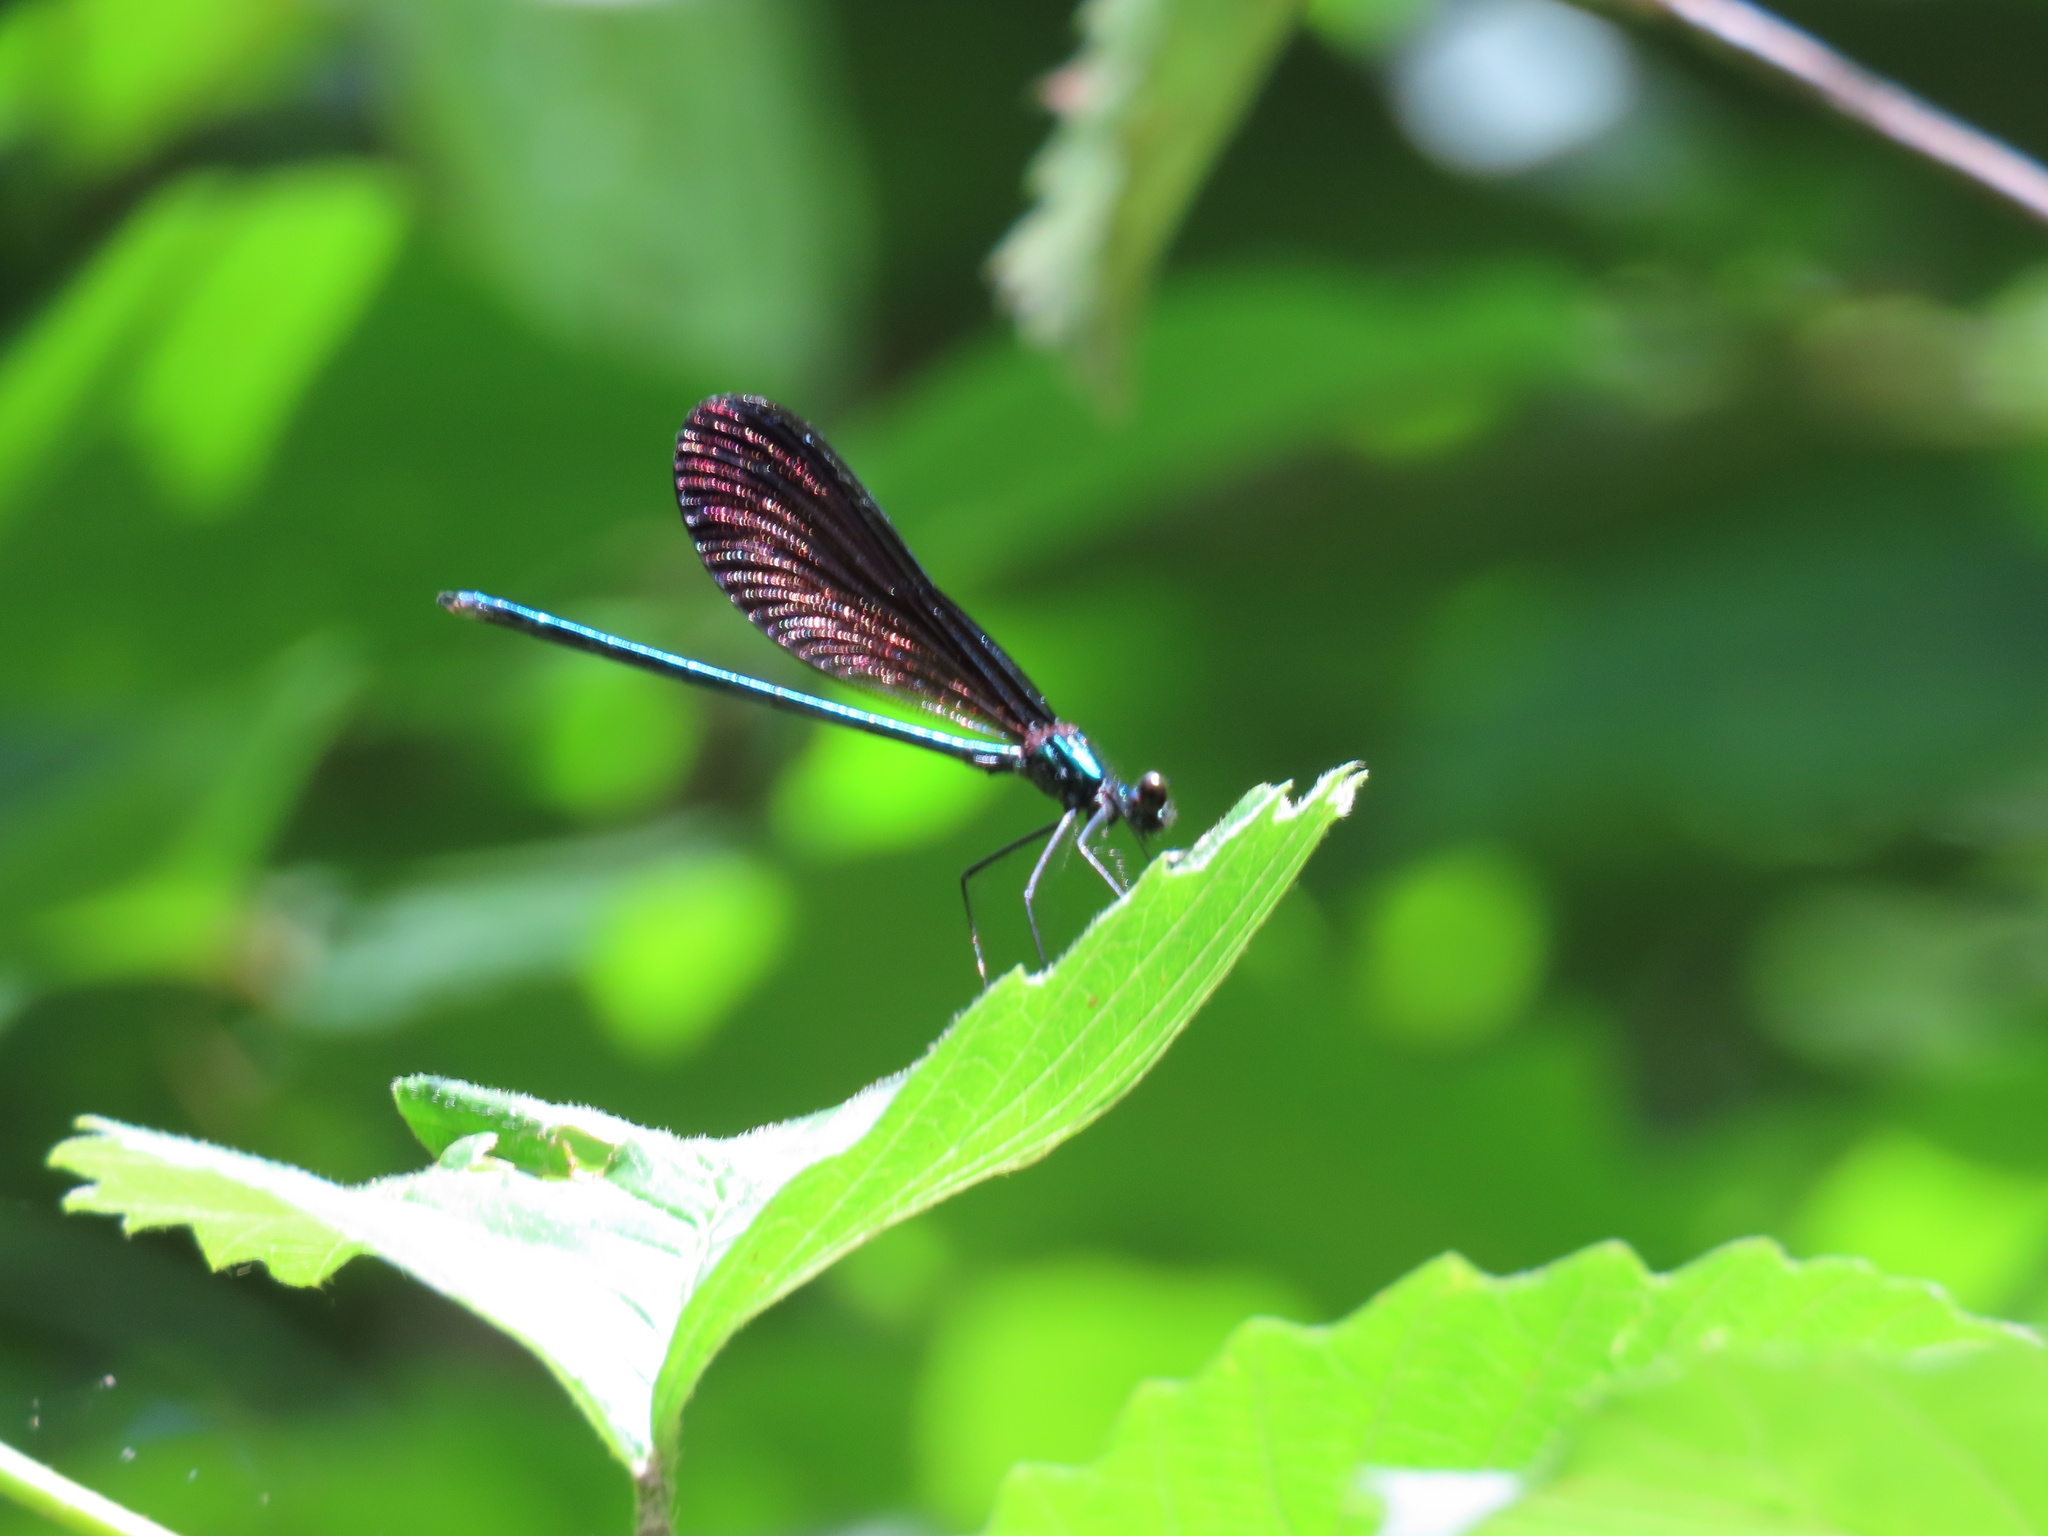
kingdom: Animalia
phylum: Arthropoda
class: Insecta
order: Odonata
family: Calopterygidae
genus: Calopteryx
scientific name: Calopteryx maculata
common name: Ebony jewelwing
